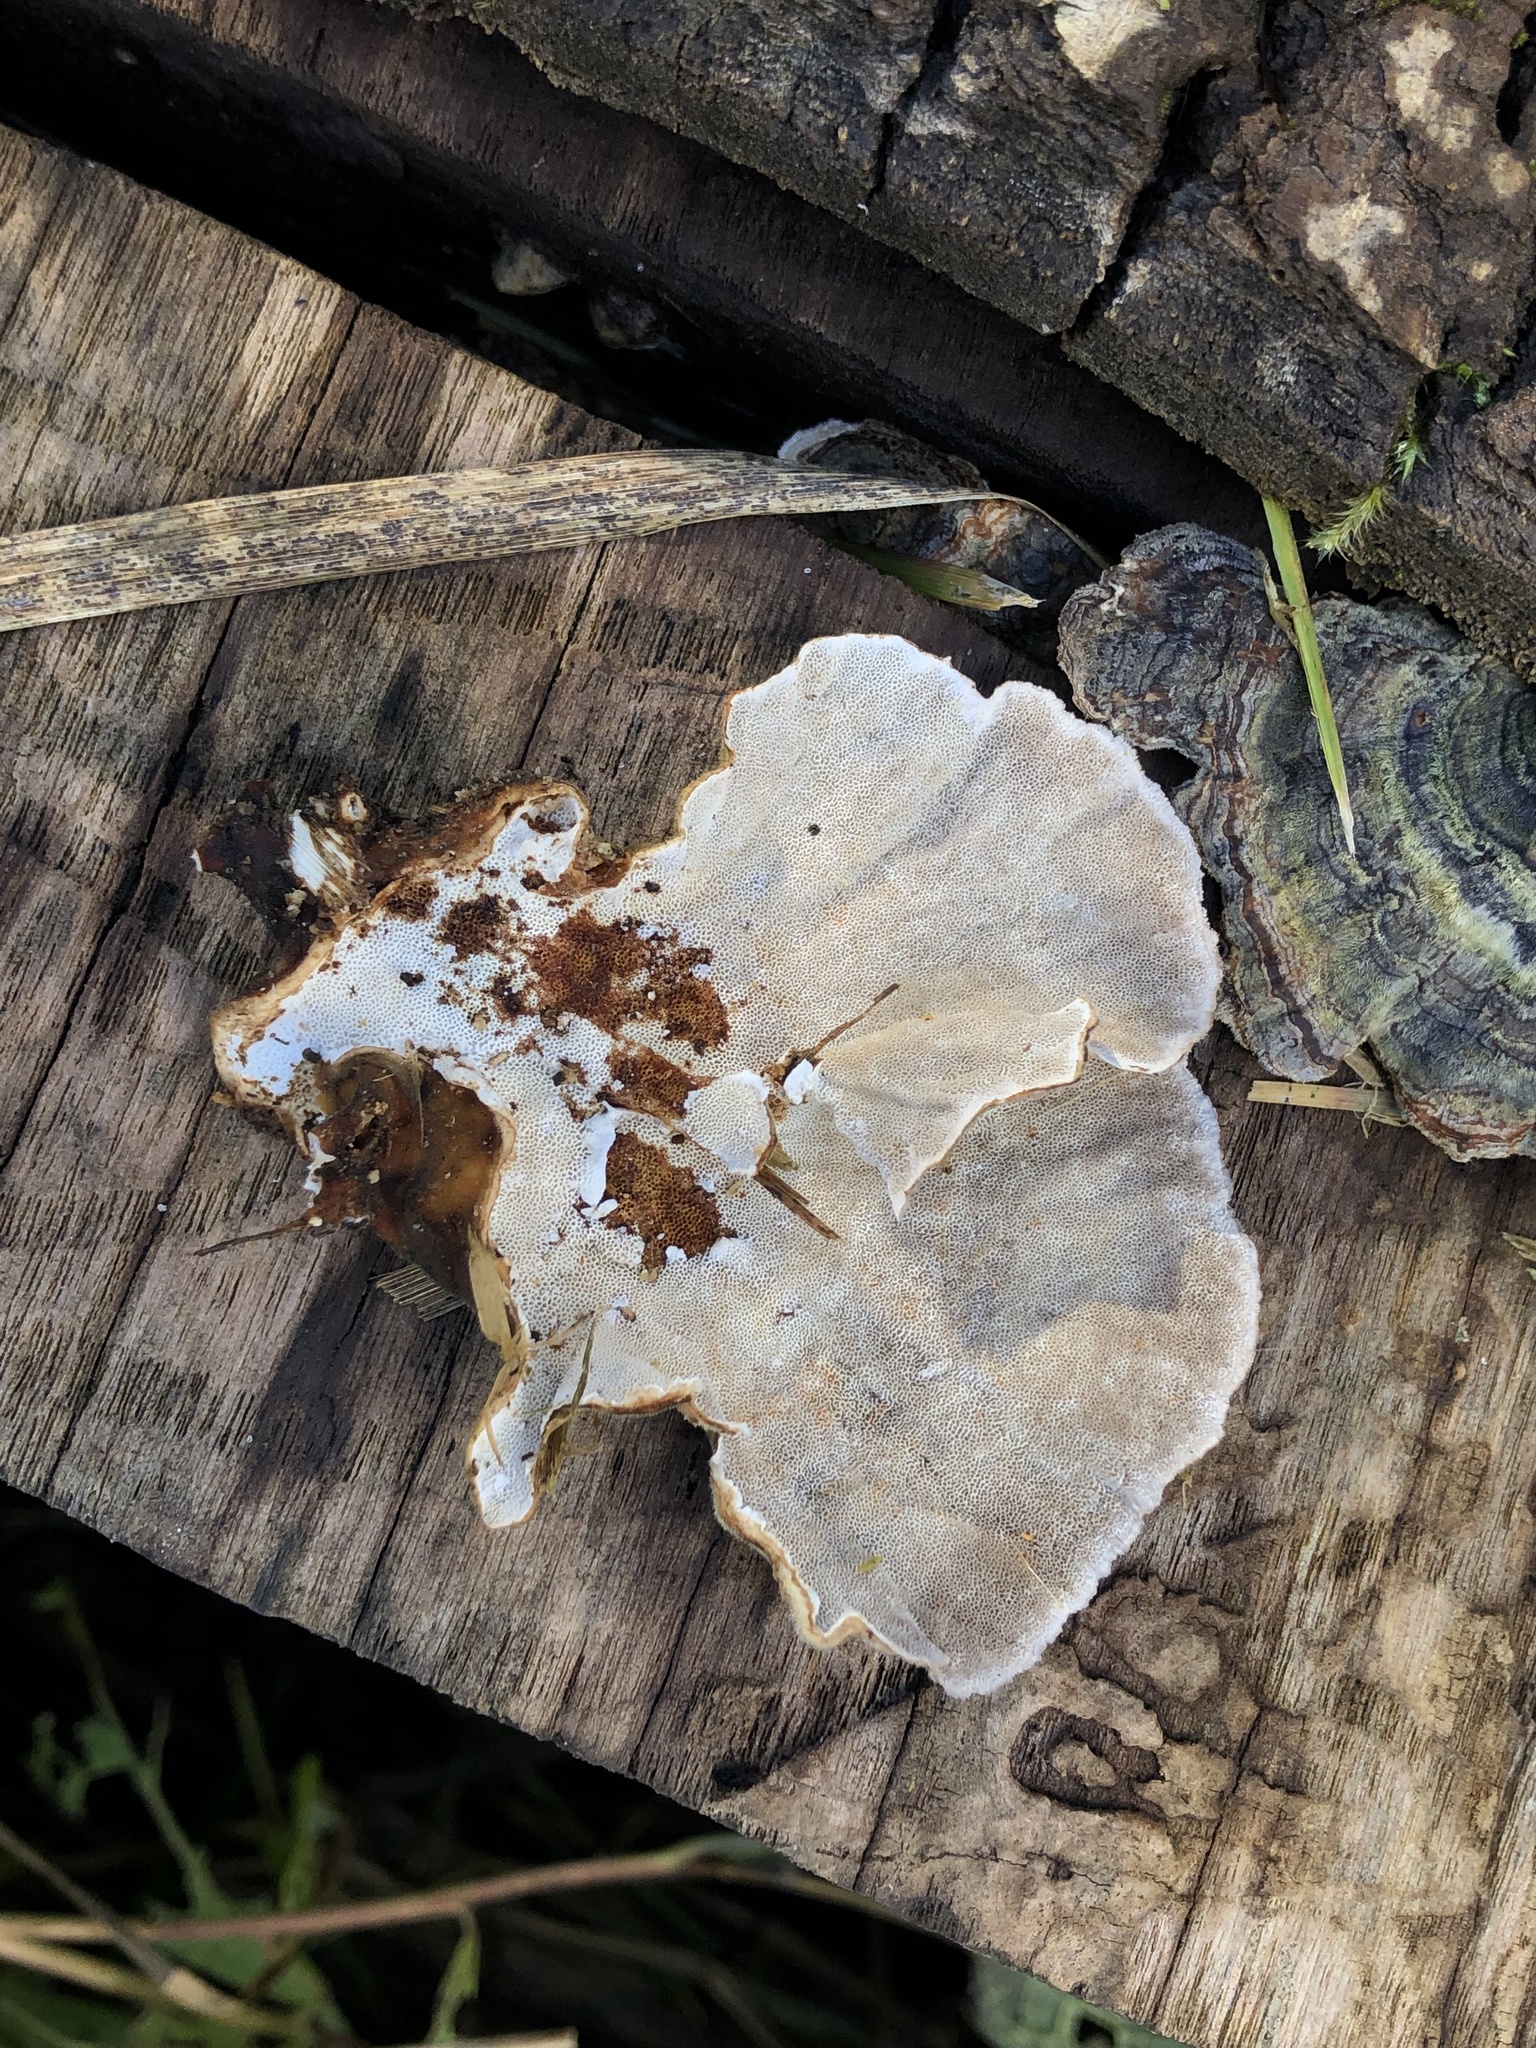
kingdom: Fungi
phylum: Basidiomycota
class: Agaricomycetes
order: Polyporales
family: Polyporaceae
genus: Trametes
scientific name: Trametes versicolor
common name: Turkeytail
